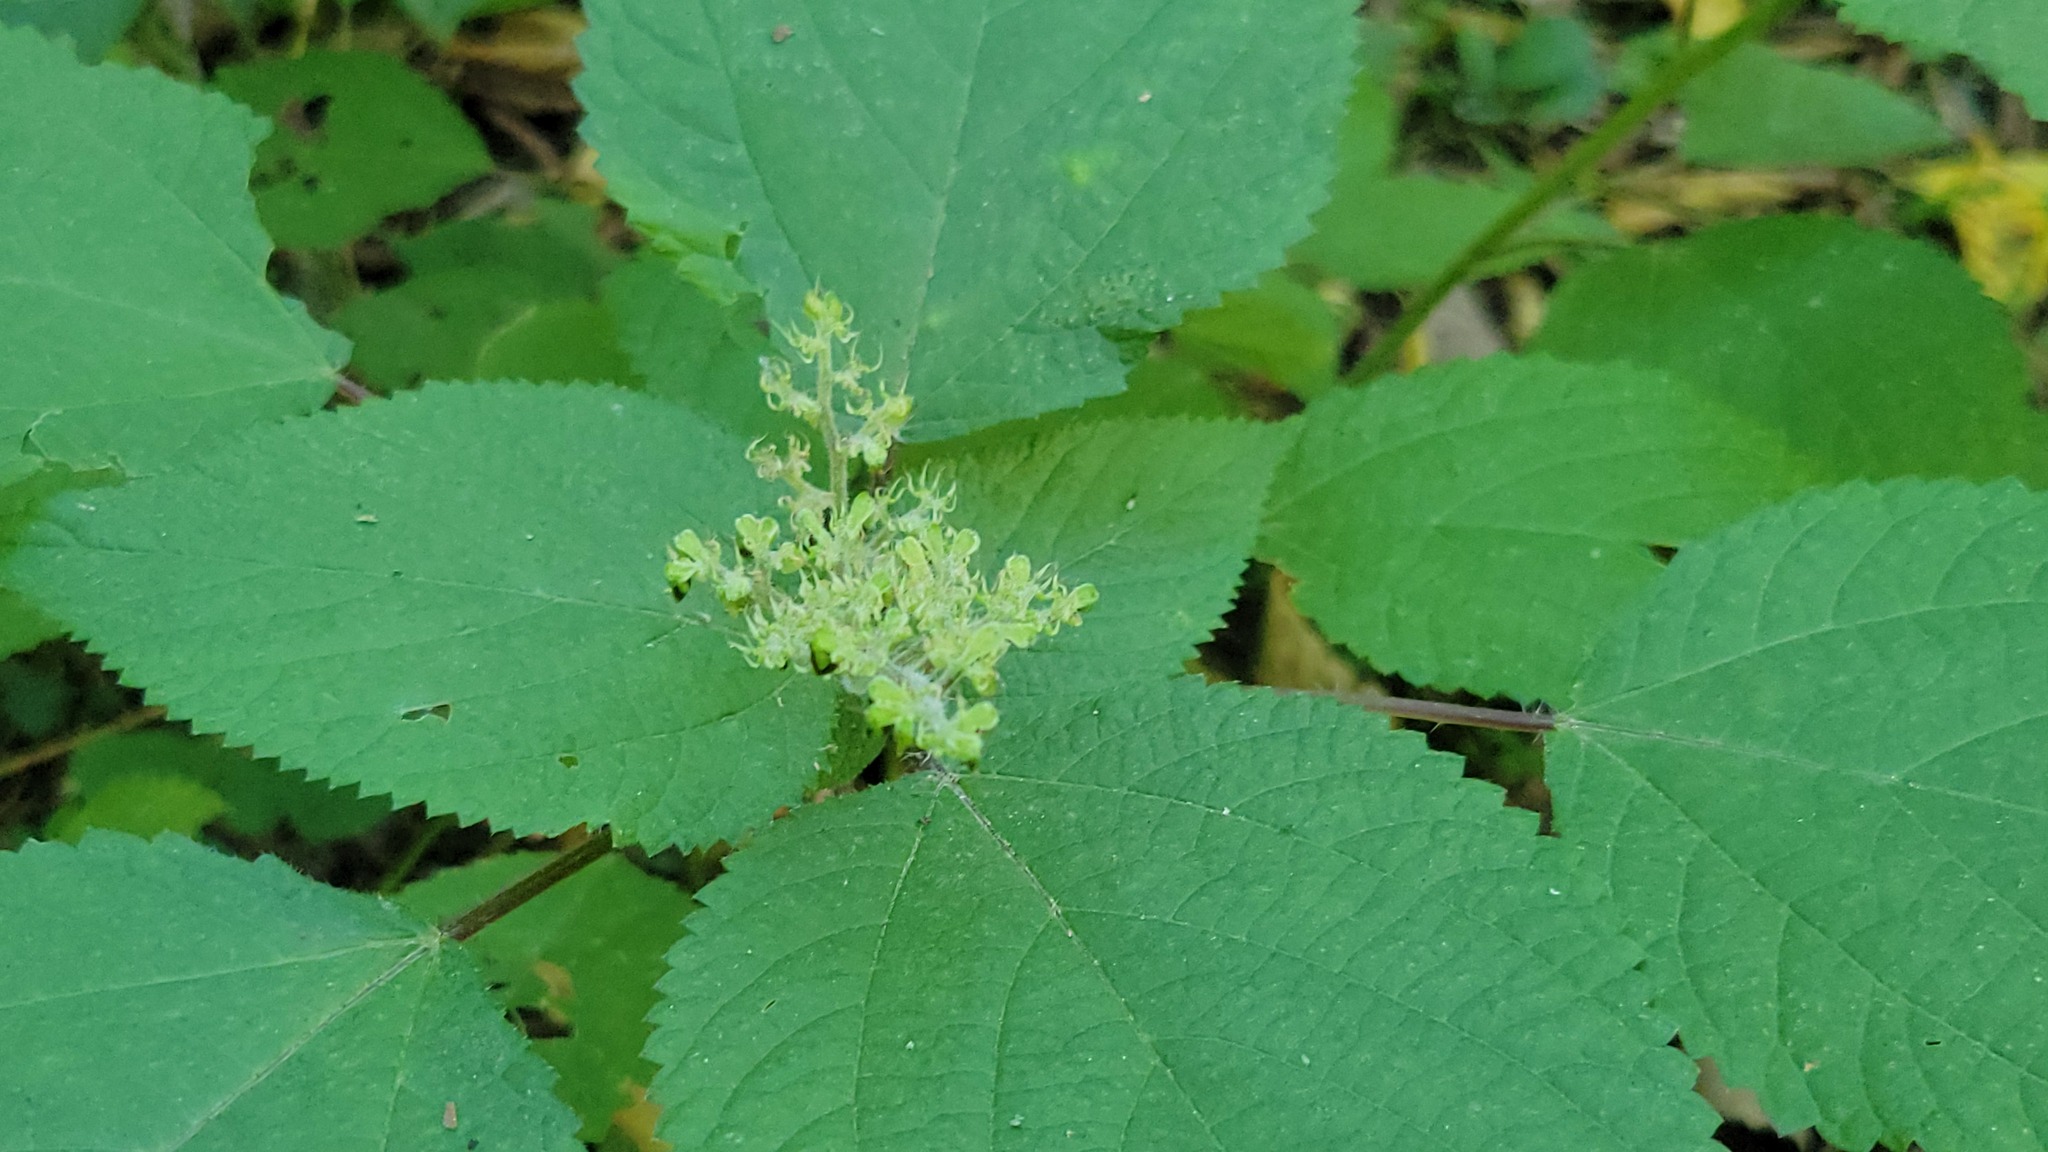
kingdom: Plantae
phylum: Tracheophyta
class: Magnoliopsida
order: Rosales
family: Urticaceae
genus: Laportea
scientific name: Laportea canadensis
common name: Canada nettle
